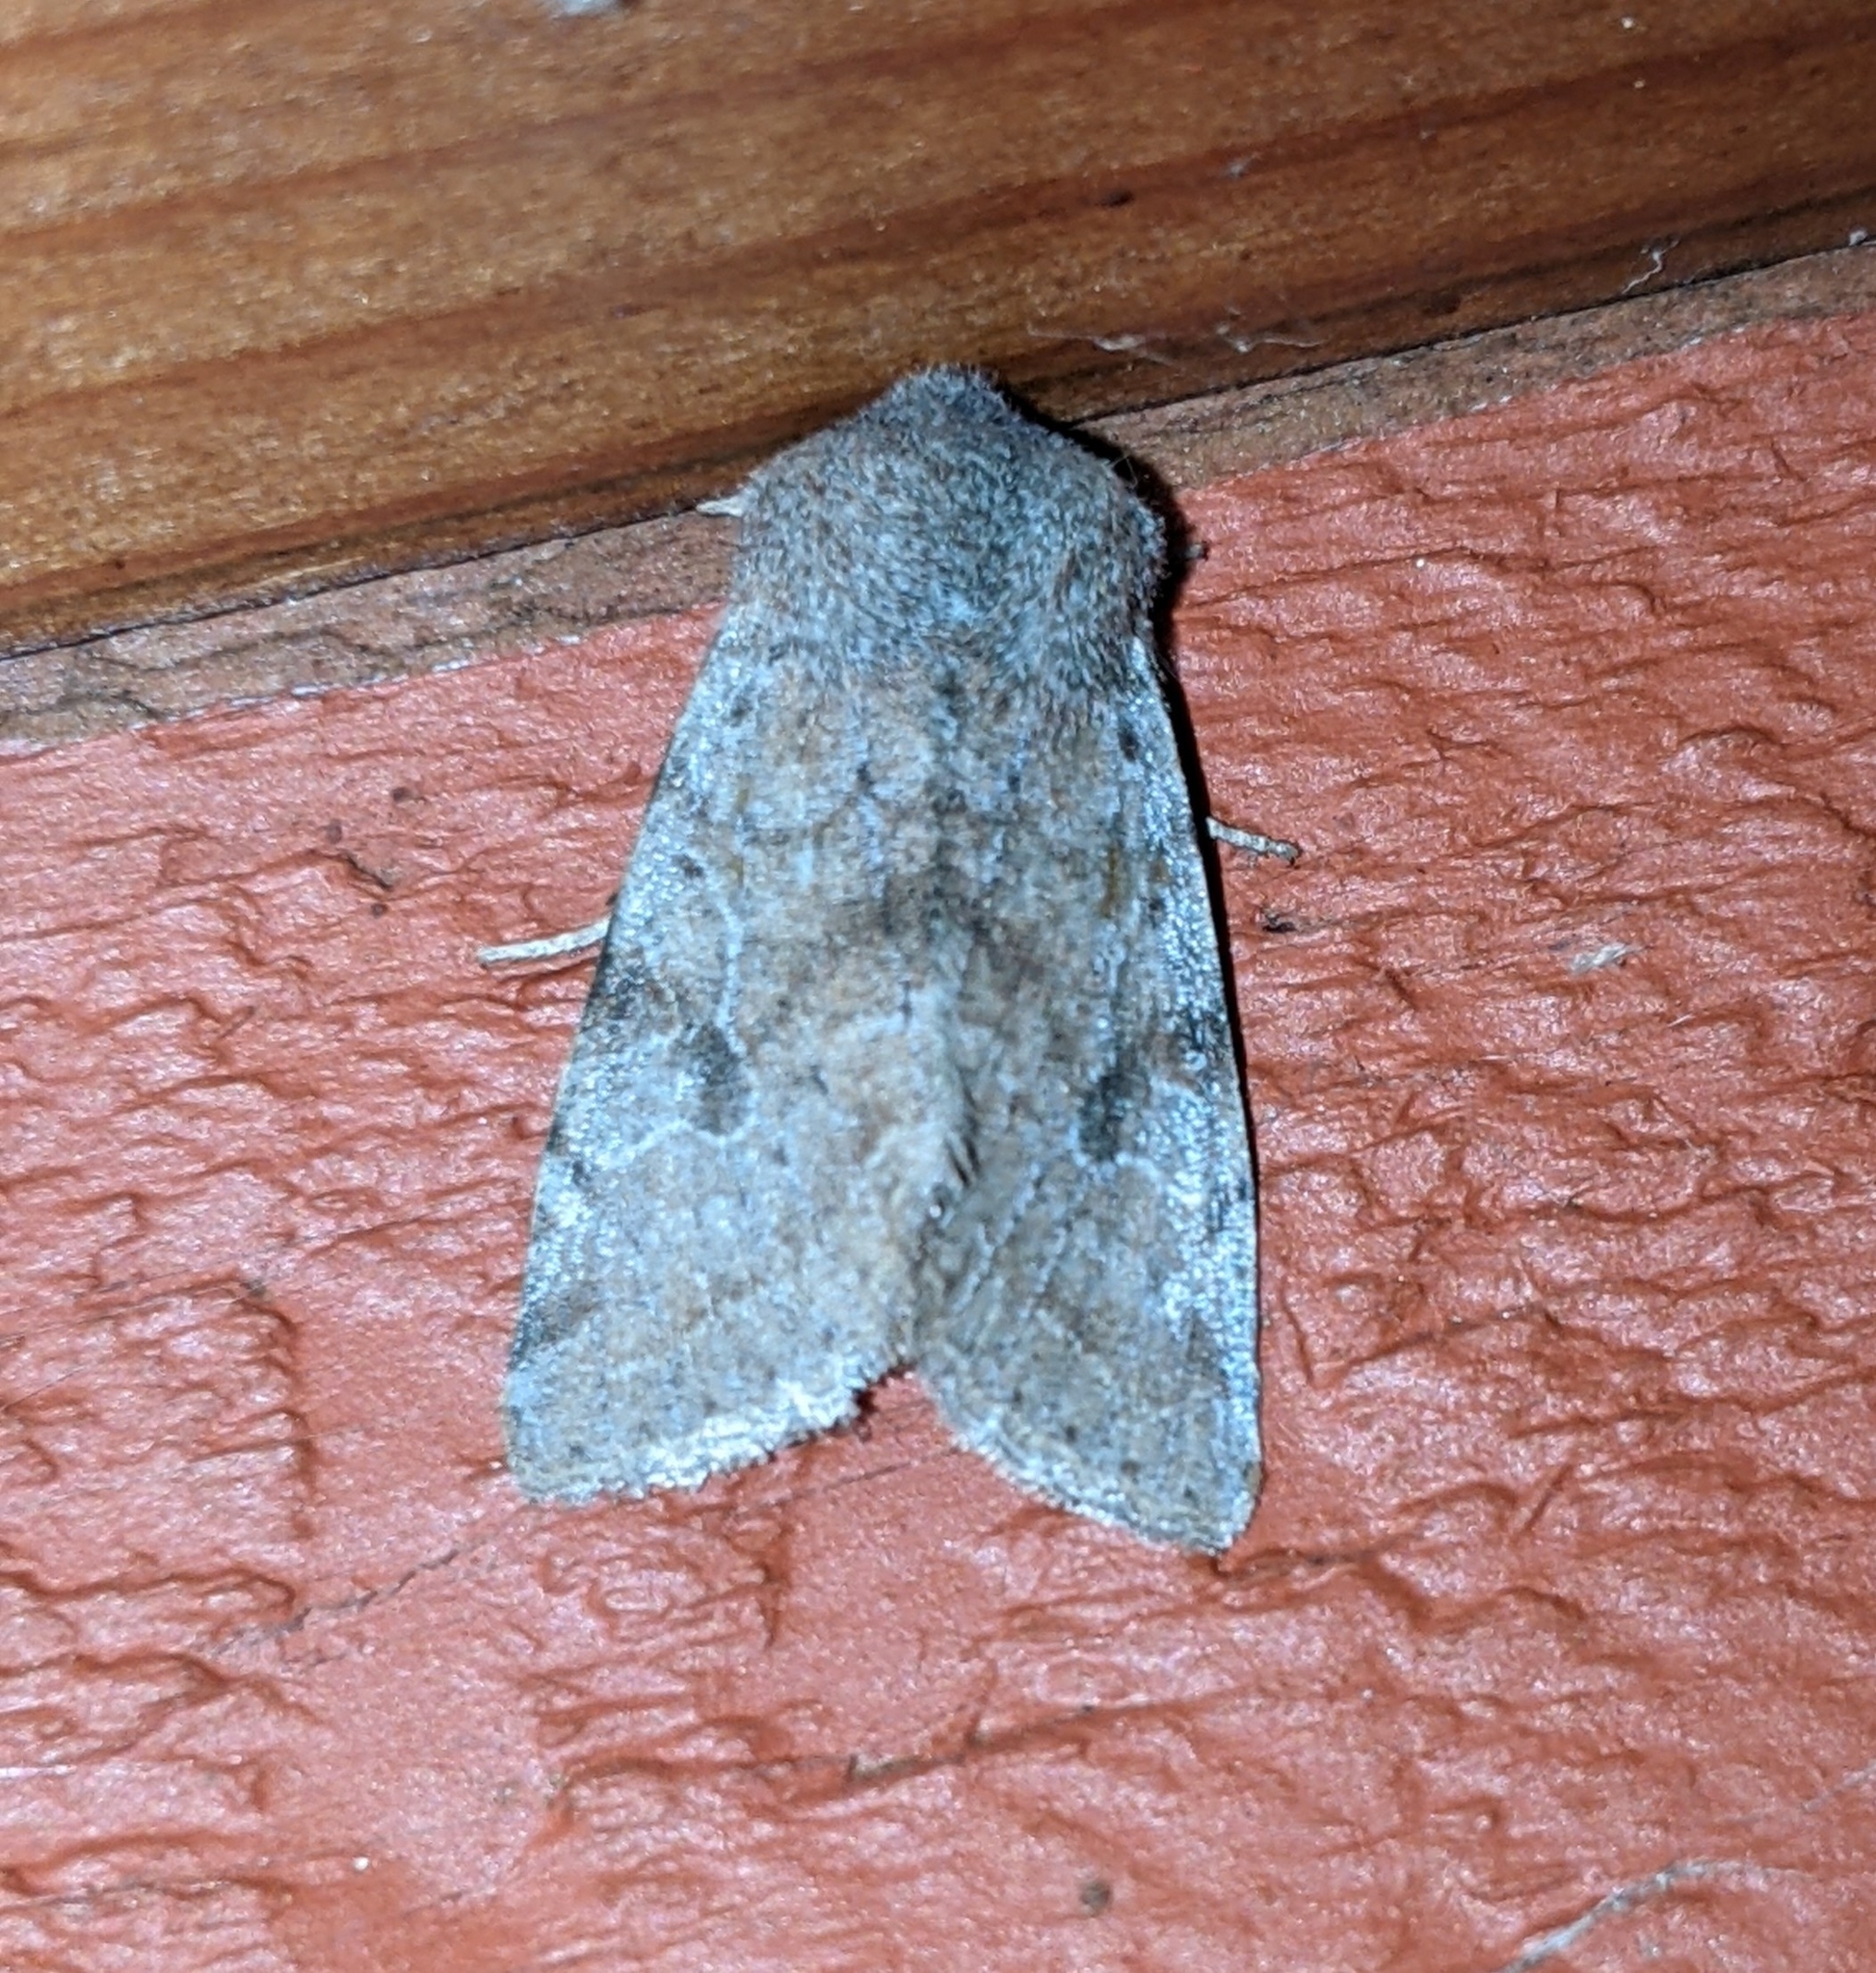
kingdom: Animalia
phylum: Arthropoda
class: Insecta
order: Lepidoptera
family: Noctuidae
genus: Orthosia
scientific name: Orthosia hibisci
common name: Green fruitworm
